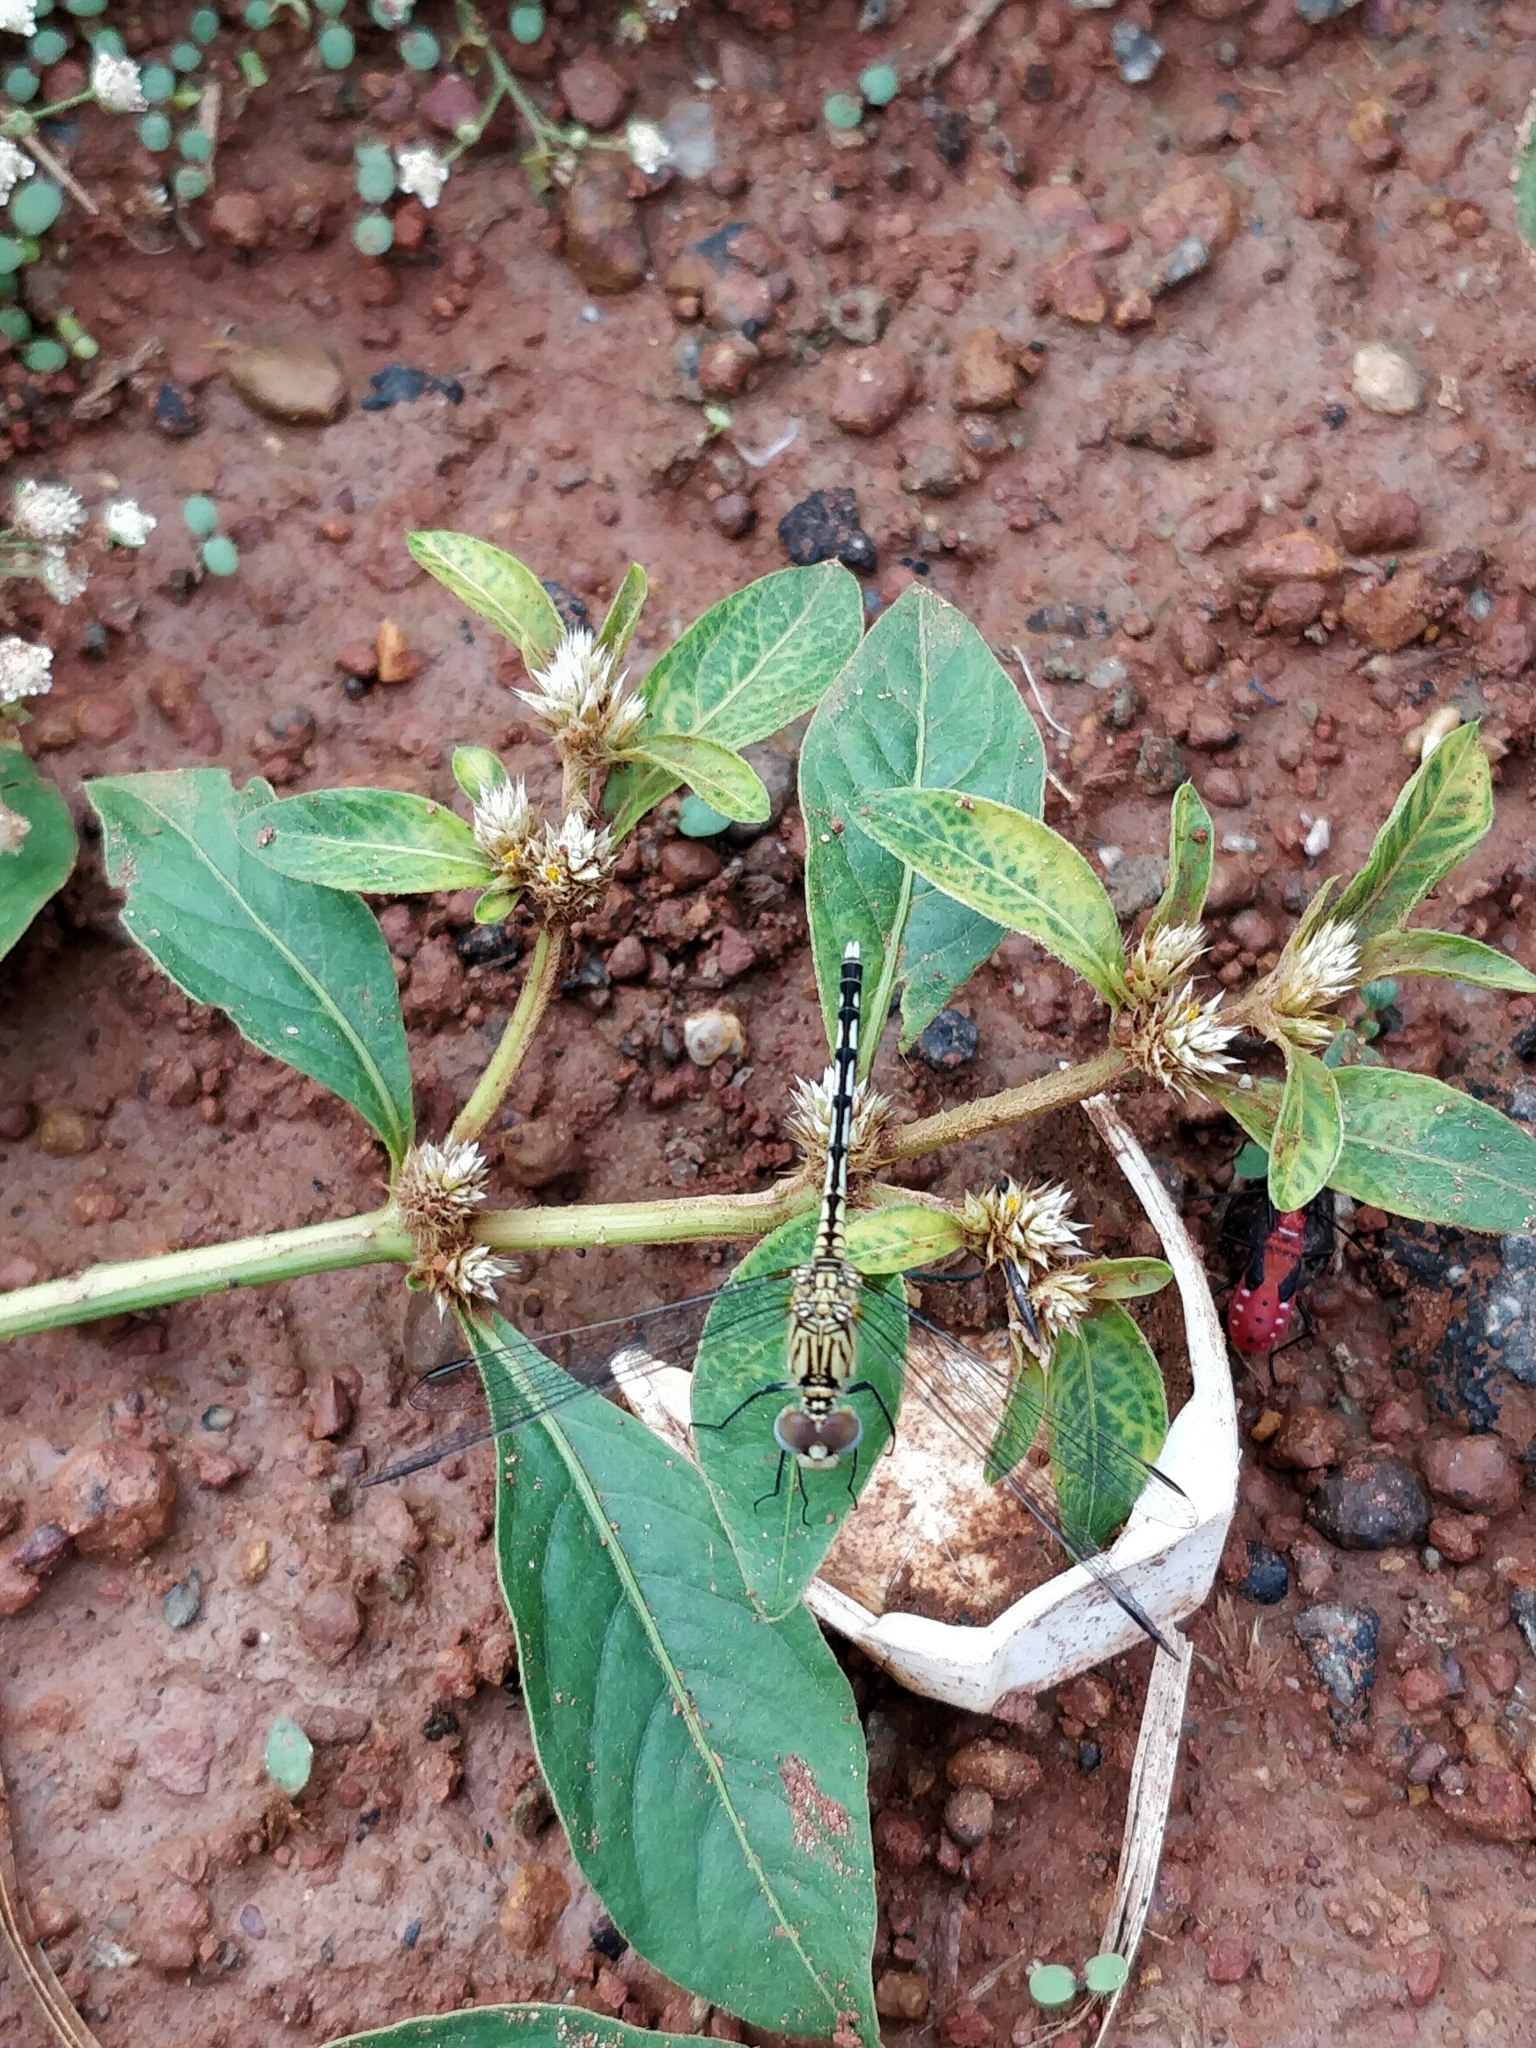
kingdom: Animalia
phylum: Arthropoda
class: Insecta
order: Odonata
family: Libellulidae
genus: Diplacodes
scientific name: Diplacodes trivialis
